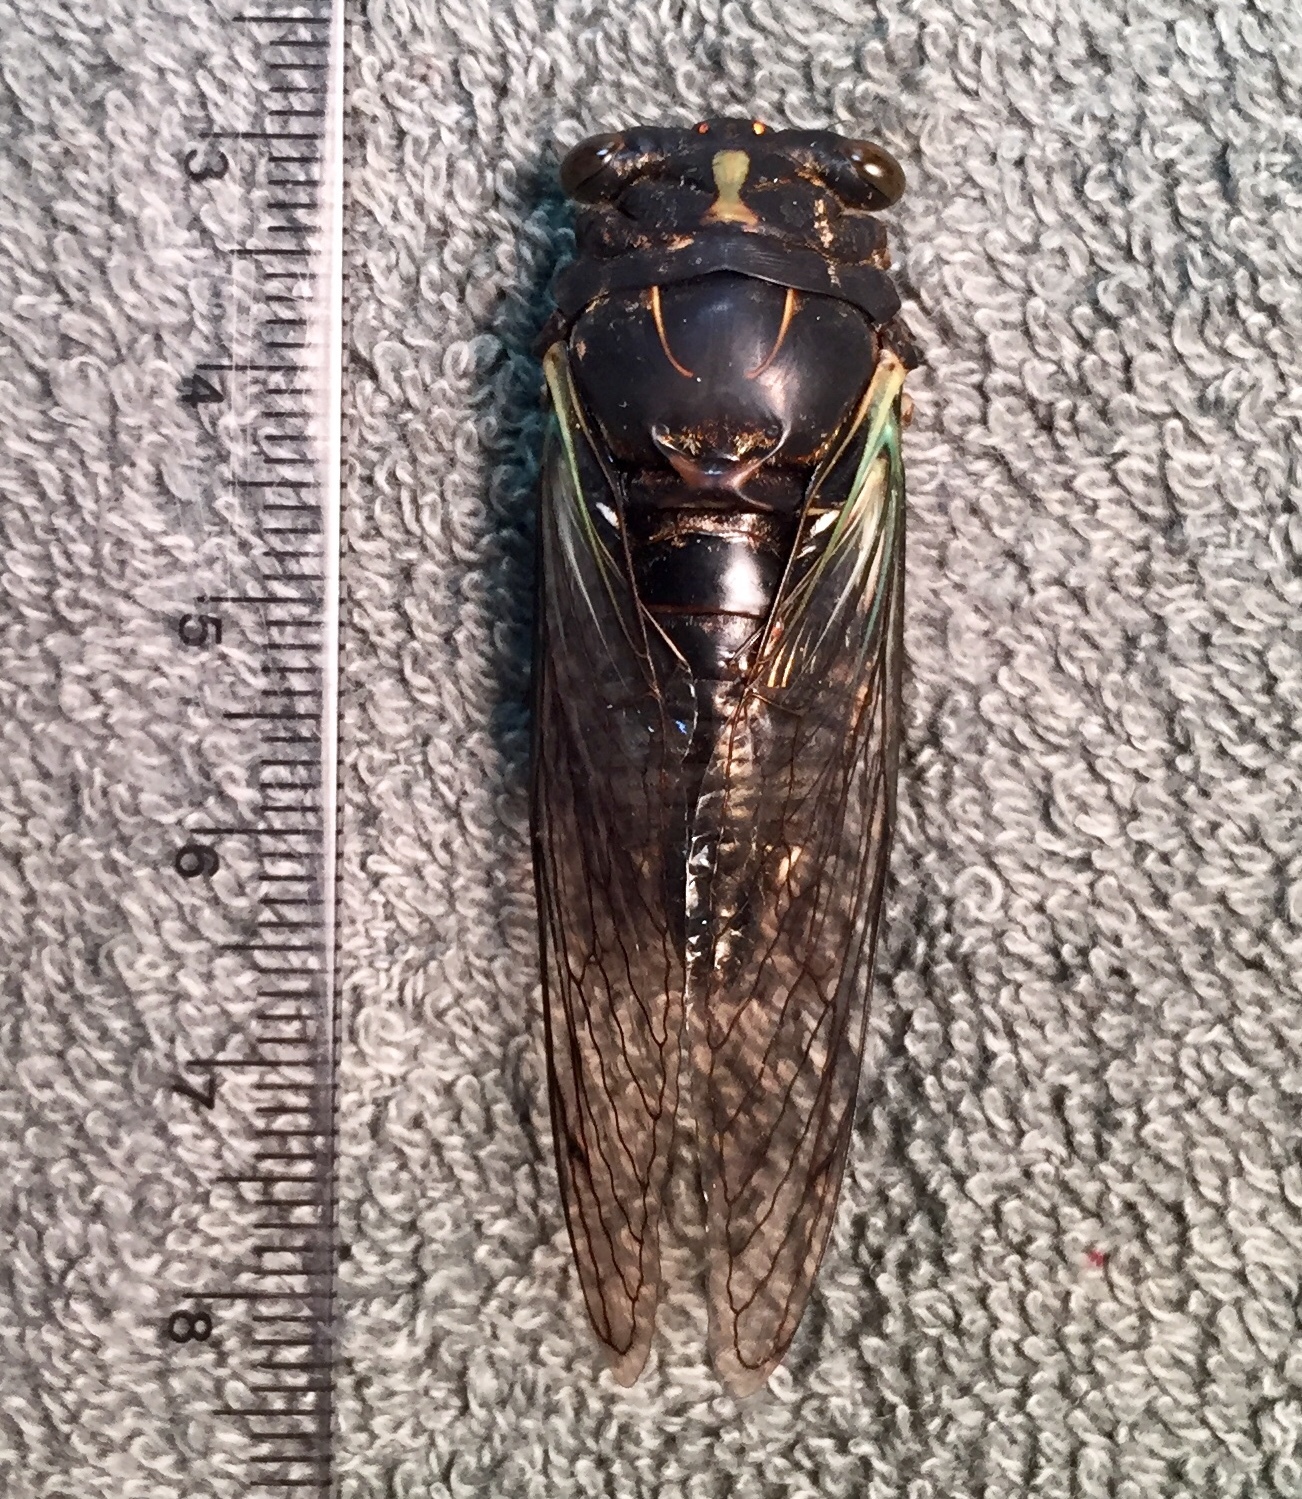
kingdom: Animalia
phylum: Arthropoda
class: Insecta
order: Hemiptera
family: Cicadidae
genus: Neotibicen
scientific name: Neotibicen lyricen
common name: Lyric cicada
